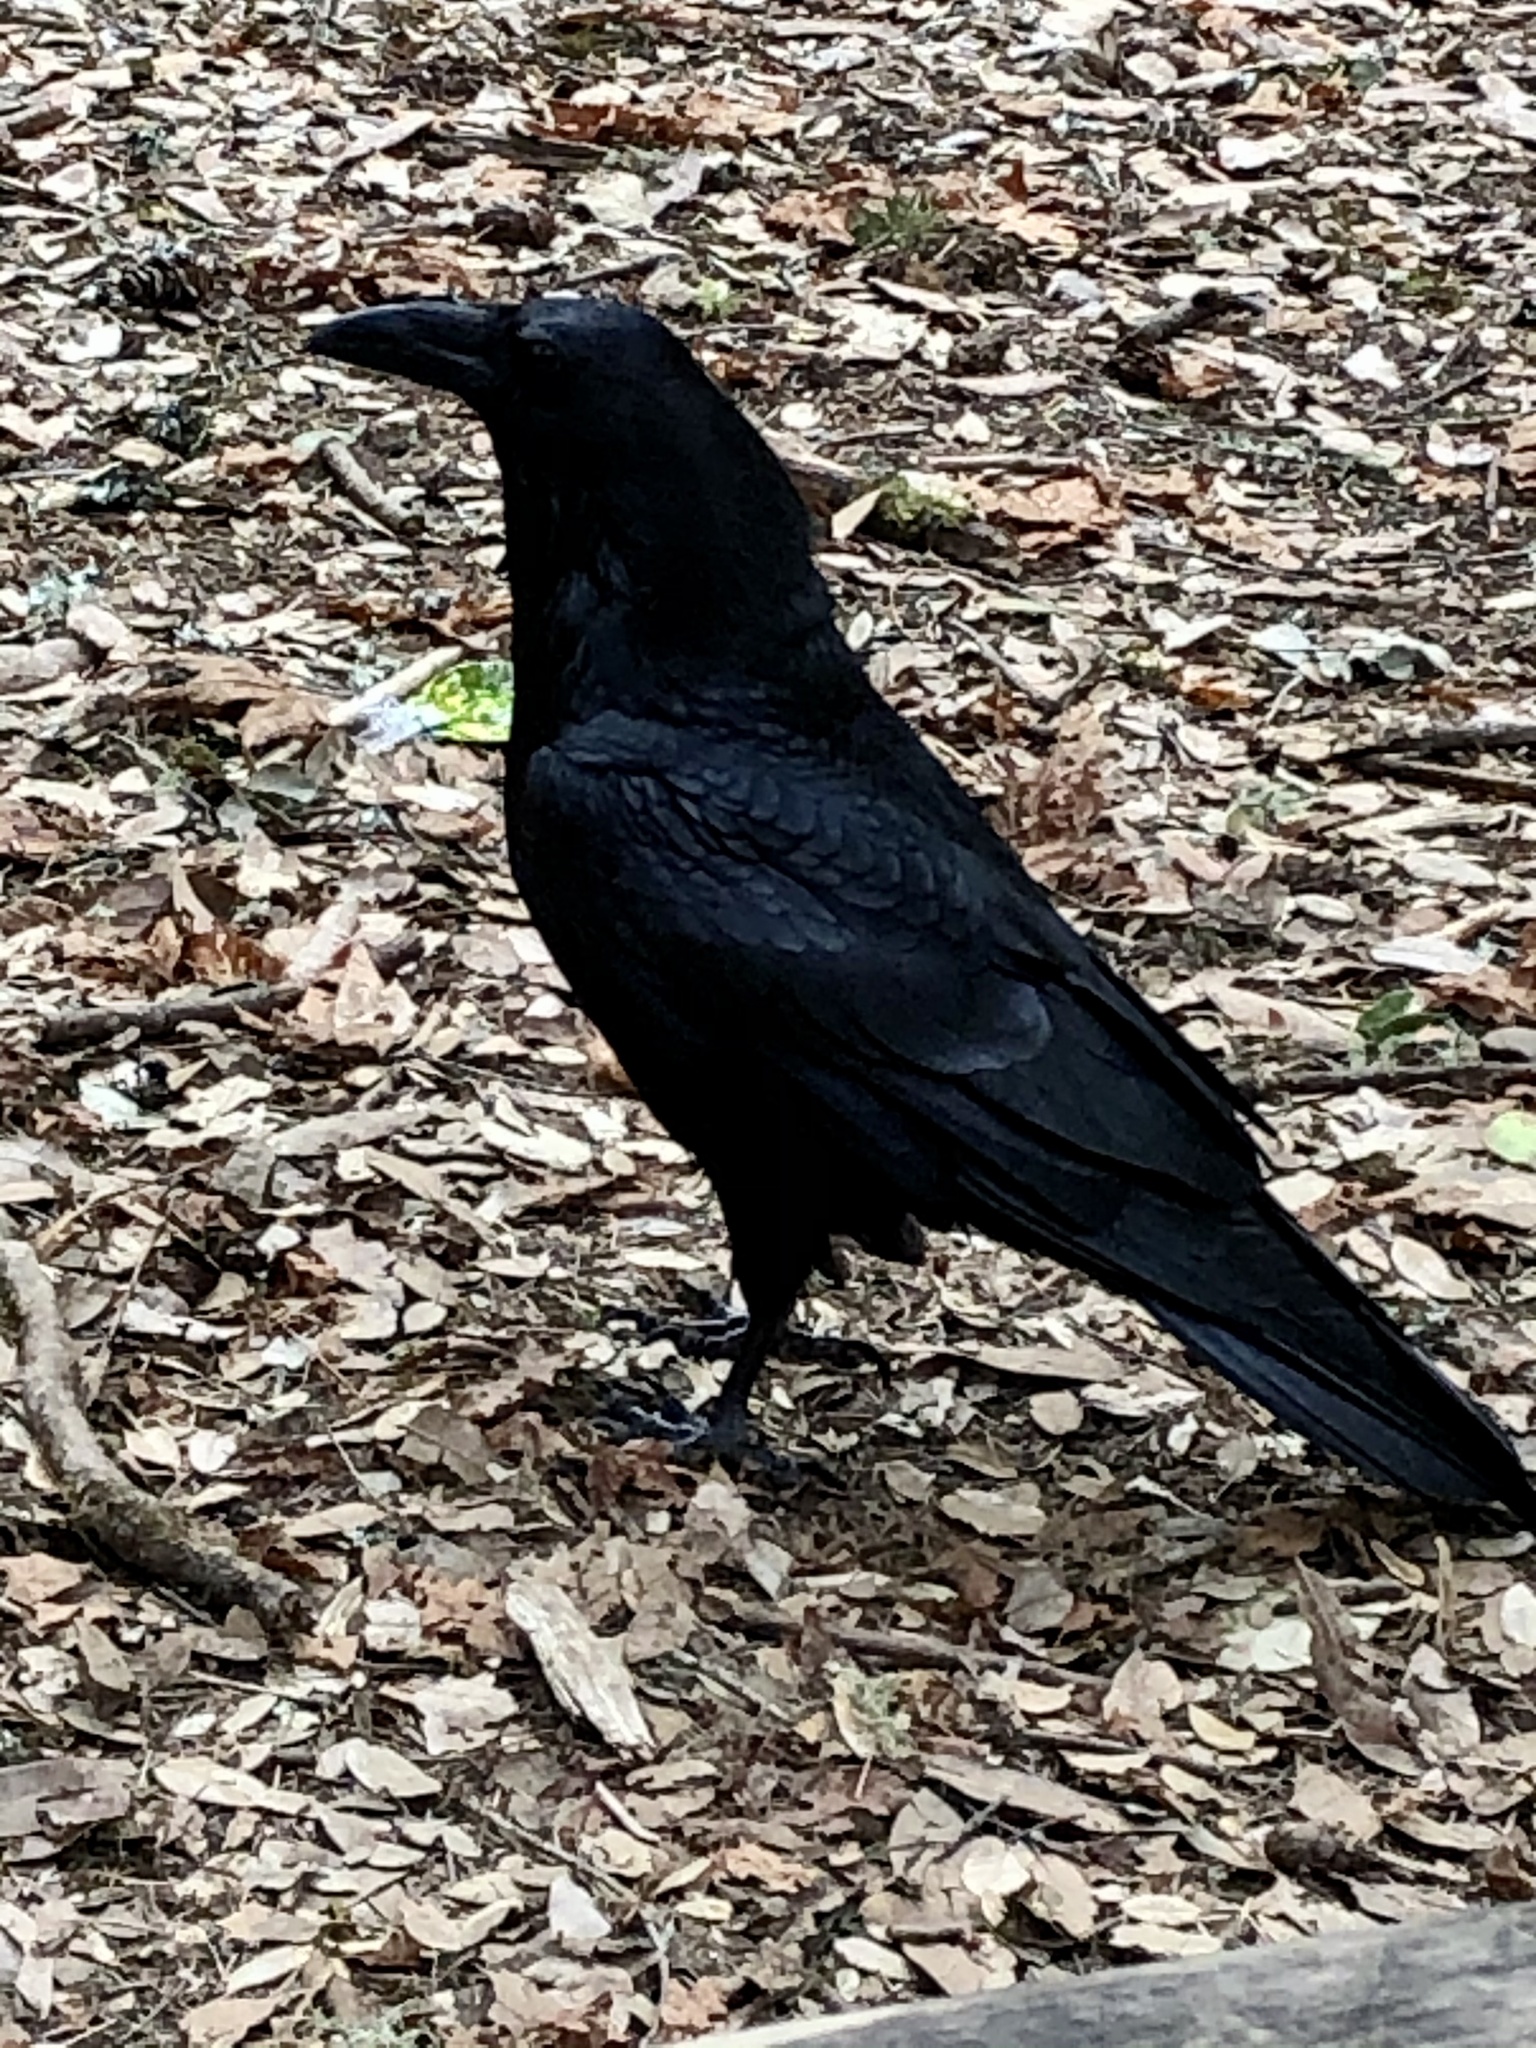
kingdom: Animalia
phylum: Chordata
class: Aves
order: Passeriformes
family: Corvidae
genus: Corvus
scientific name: Corvus corax
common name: Common raven
